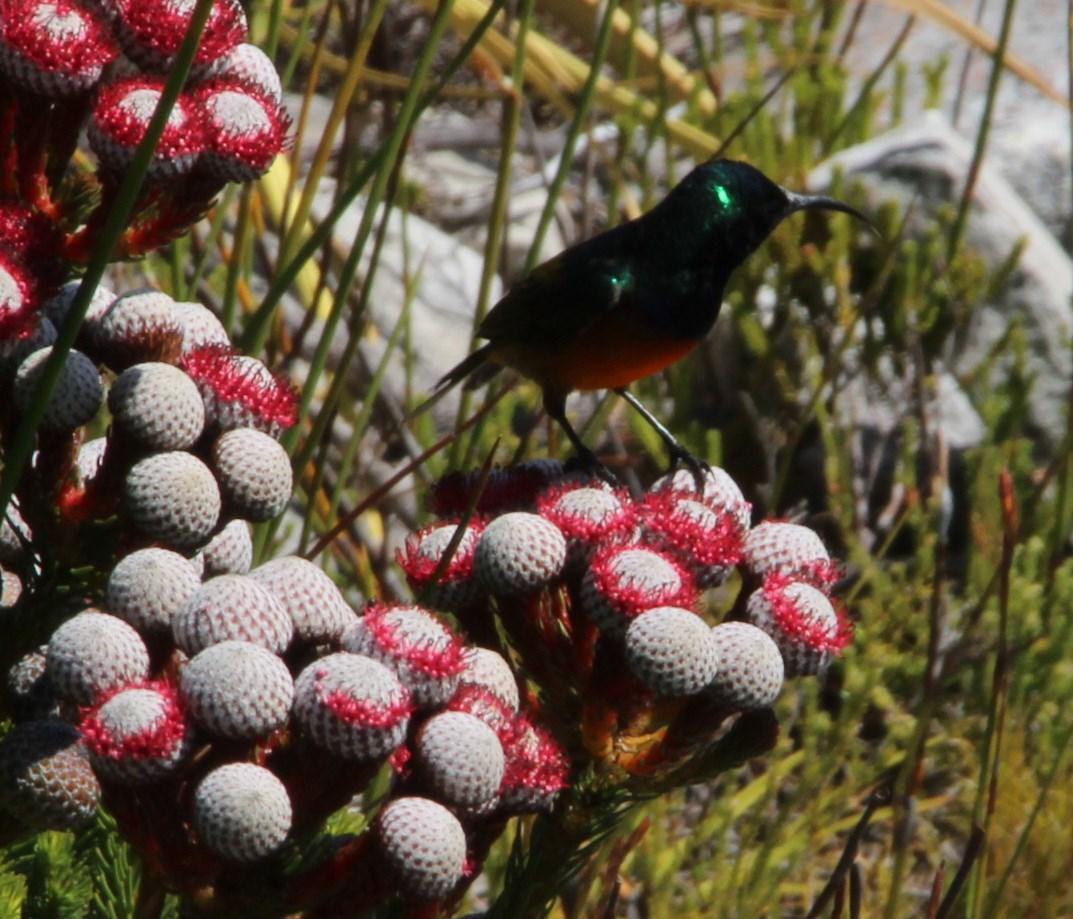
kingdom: Animalia
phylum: Chordata
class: Aves
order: Passeriformes
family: Nectariniidae
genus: Anthobaphes
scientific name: Anthobaphes violacea
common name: Orange-breasted sunbird
